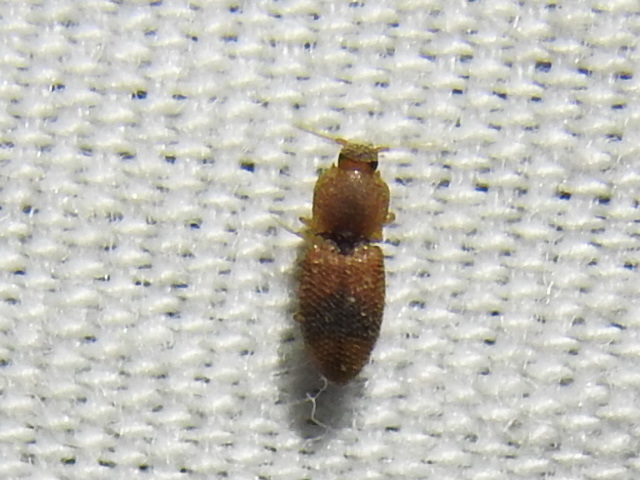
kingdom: Animalia
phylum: Arthropoda
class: Insecta
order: Coleoptera
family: Elateridae
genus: Rismethus
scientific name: Rismethus scobinula
